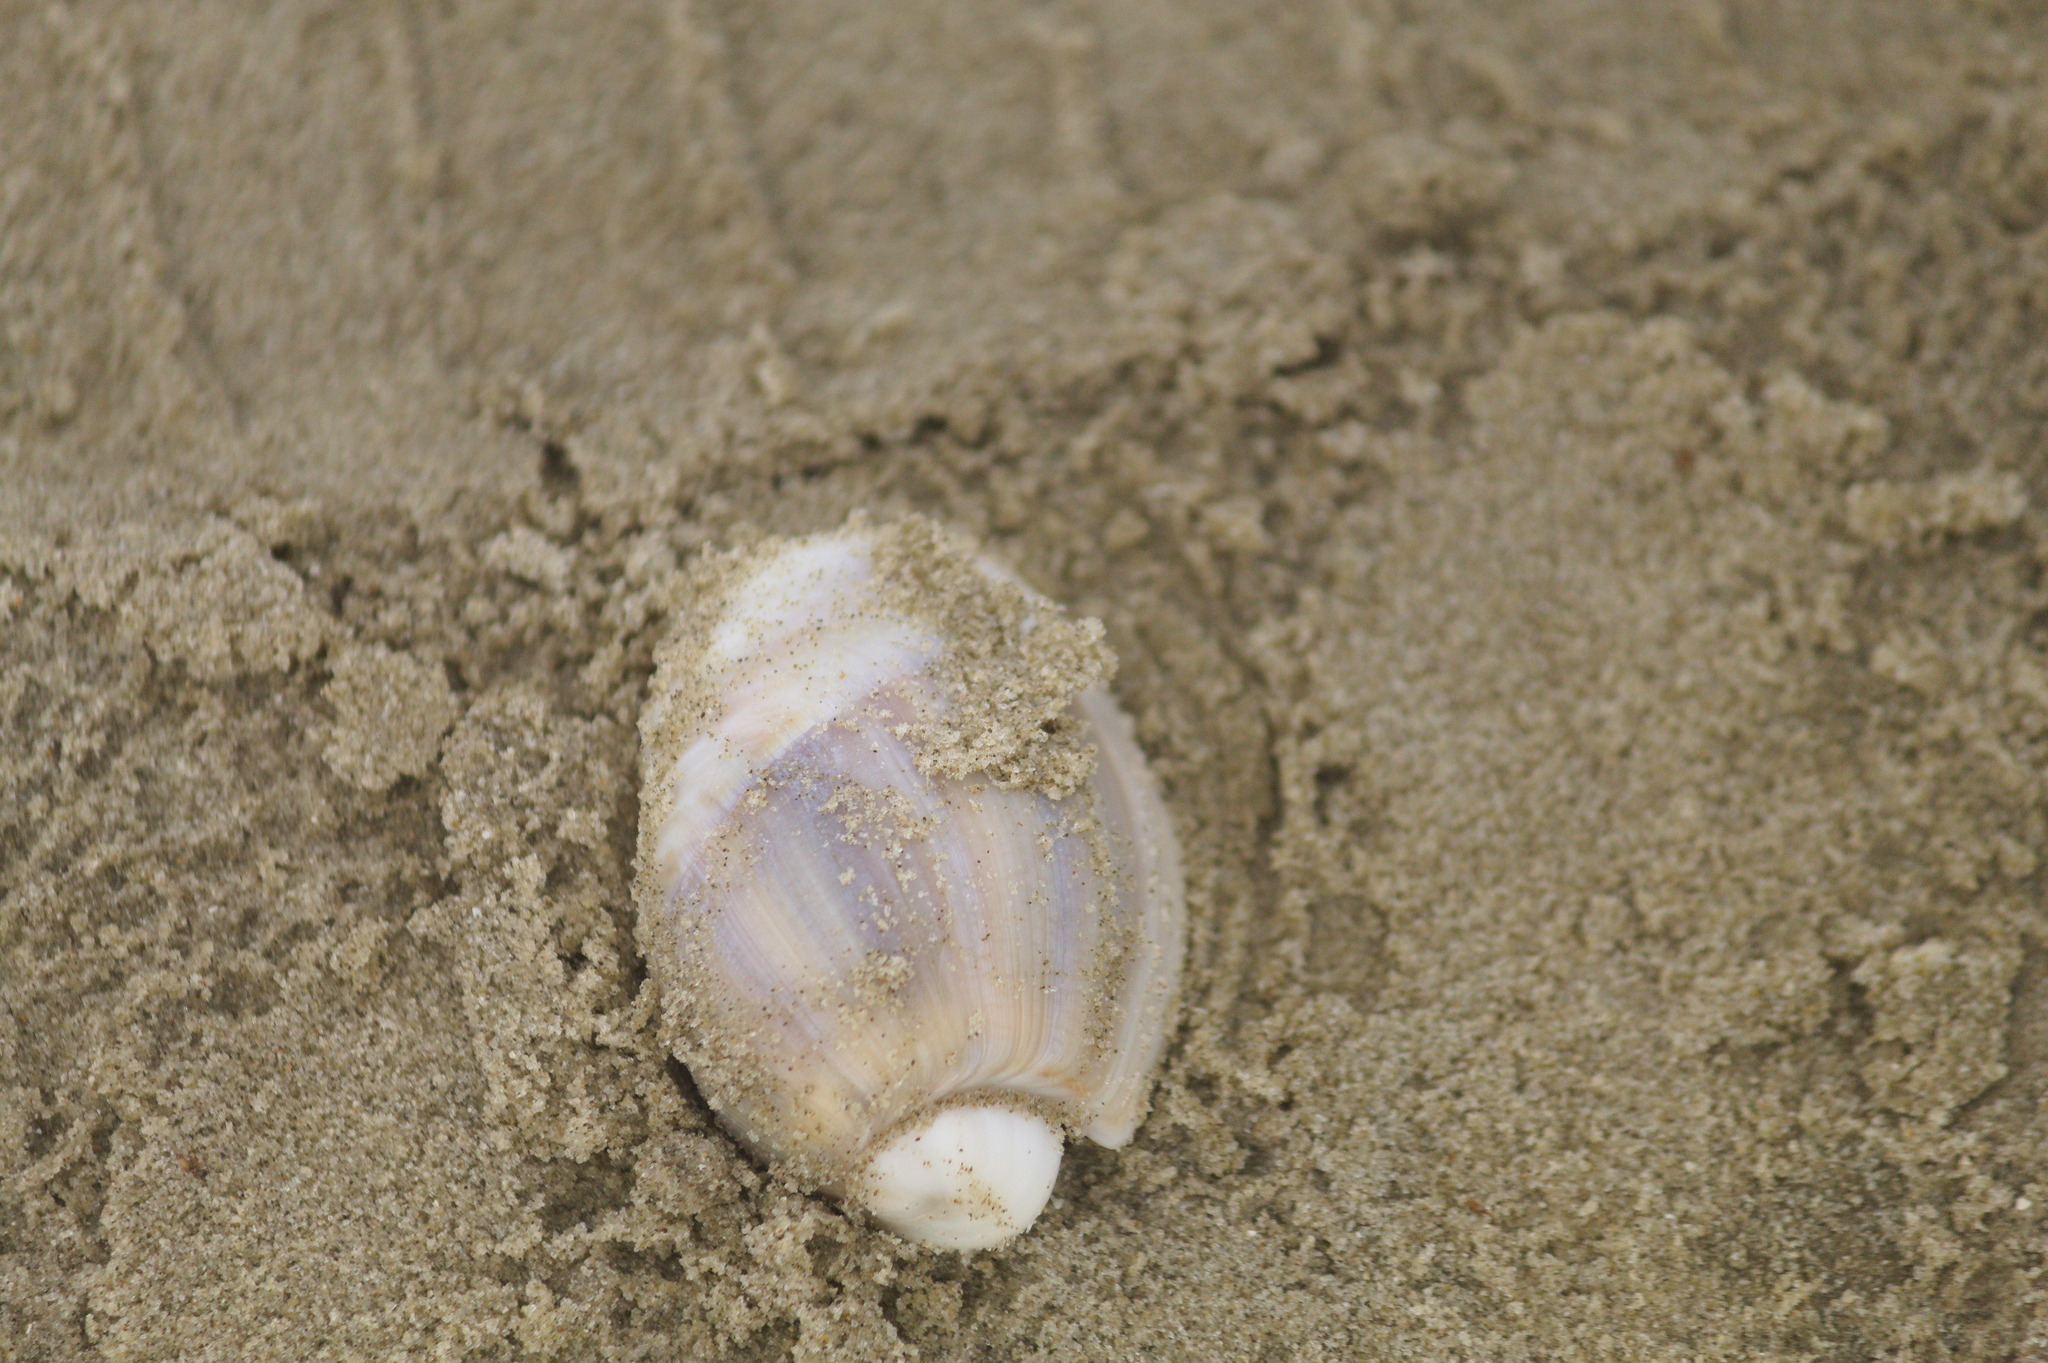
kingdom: Animalia
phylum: Mollusca
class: Gastropoda
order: Neogastropoda
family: Olividae
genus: Olivancillaria
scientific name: Olivancillaria auricularia
